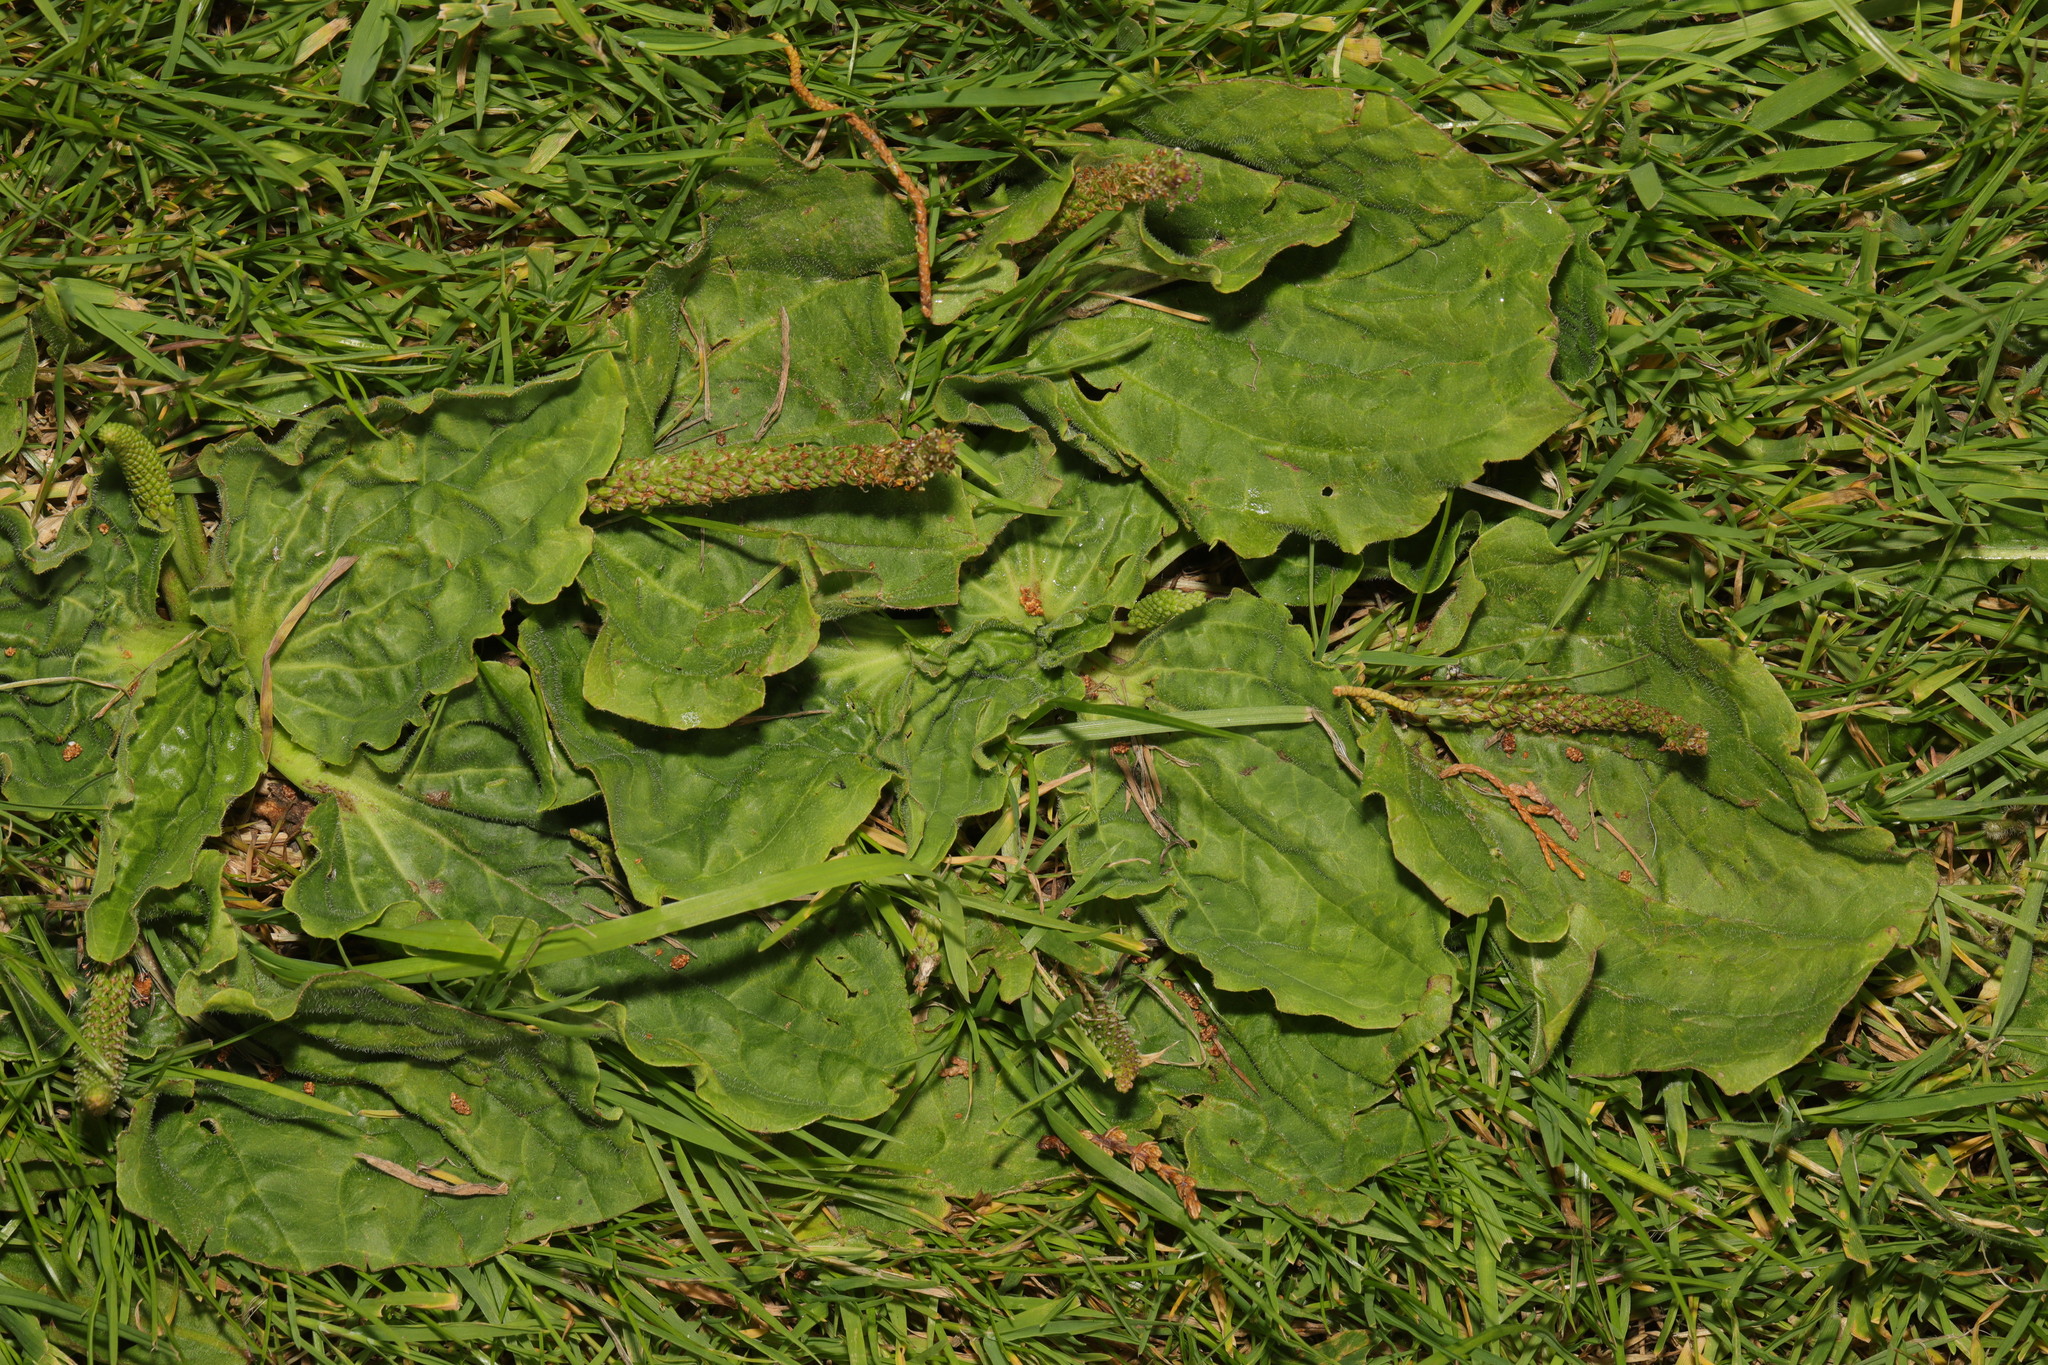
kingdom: Plantae
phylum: Tracheophyta
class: Magnoliopsida
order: Lamiales
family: Plantaginaceae
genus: Plantago
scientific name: Plantago major
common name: Common plantain
